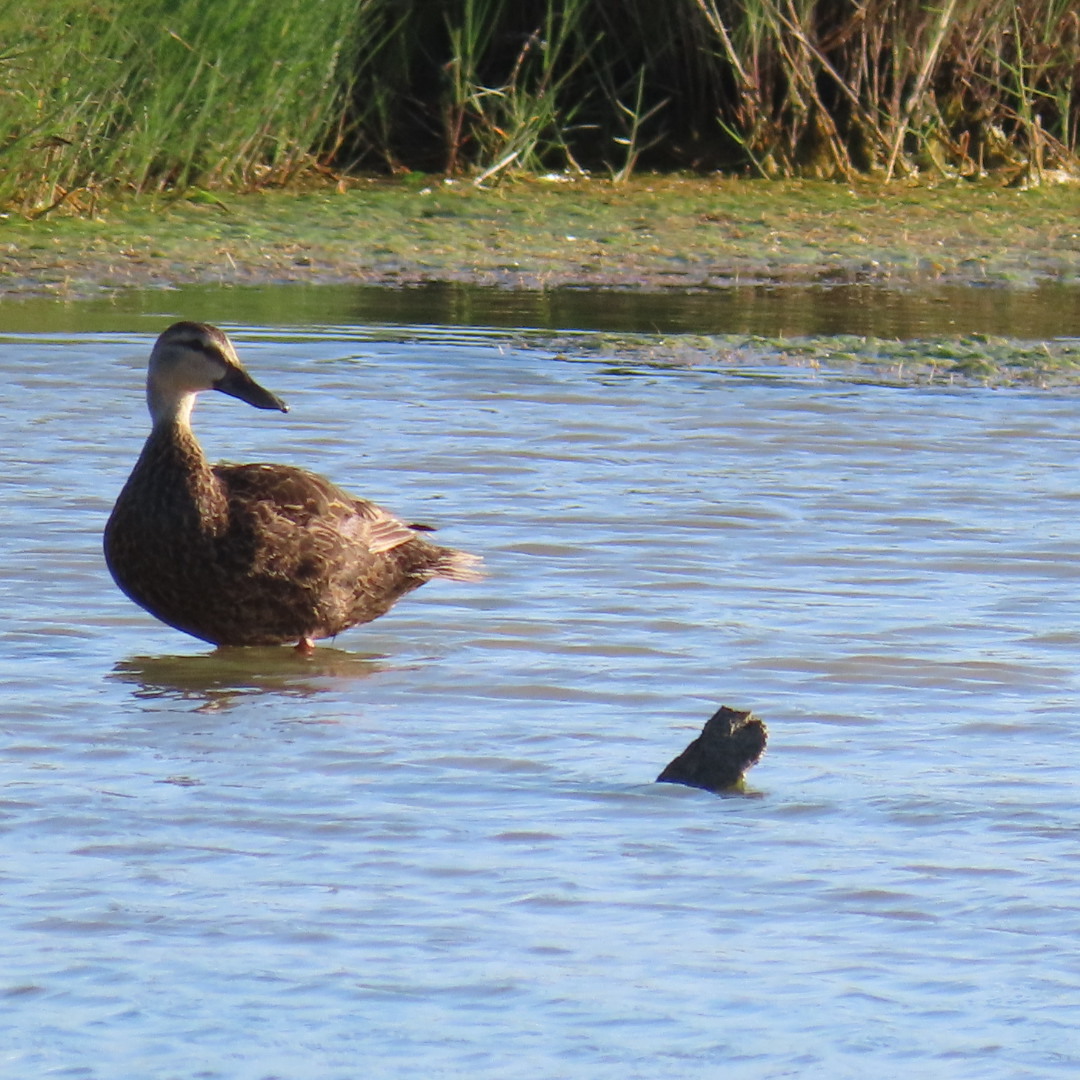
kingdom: Animalia
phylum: Chordata
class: Aves
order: Anseriformes
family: Anatidae
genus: Anas
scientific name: Anas fulvigula
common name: Mottled duck
